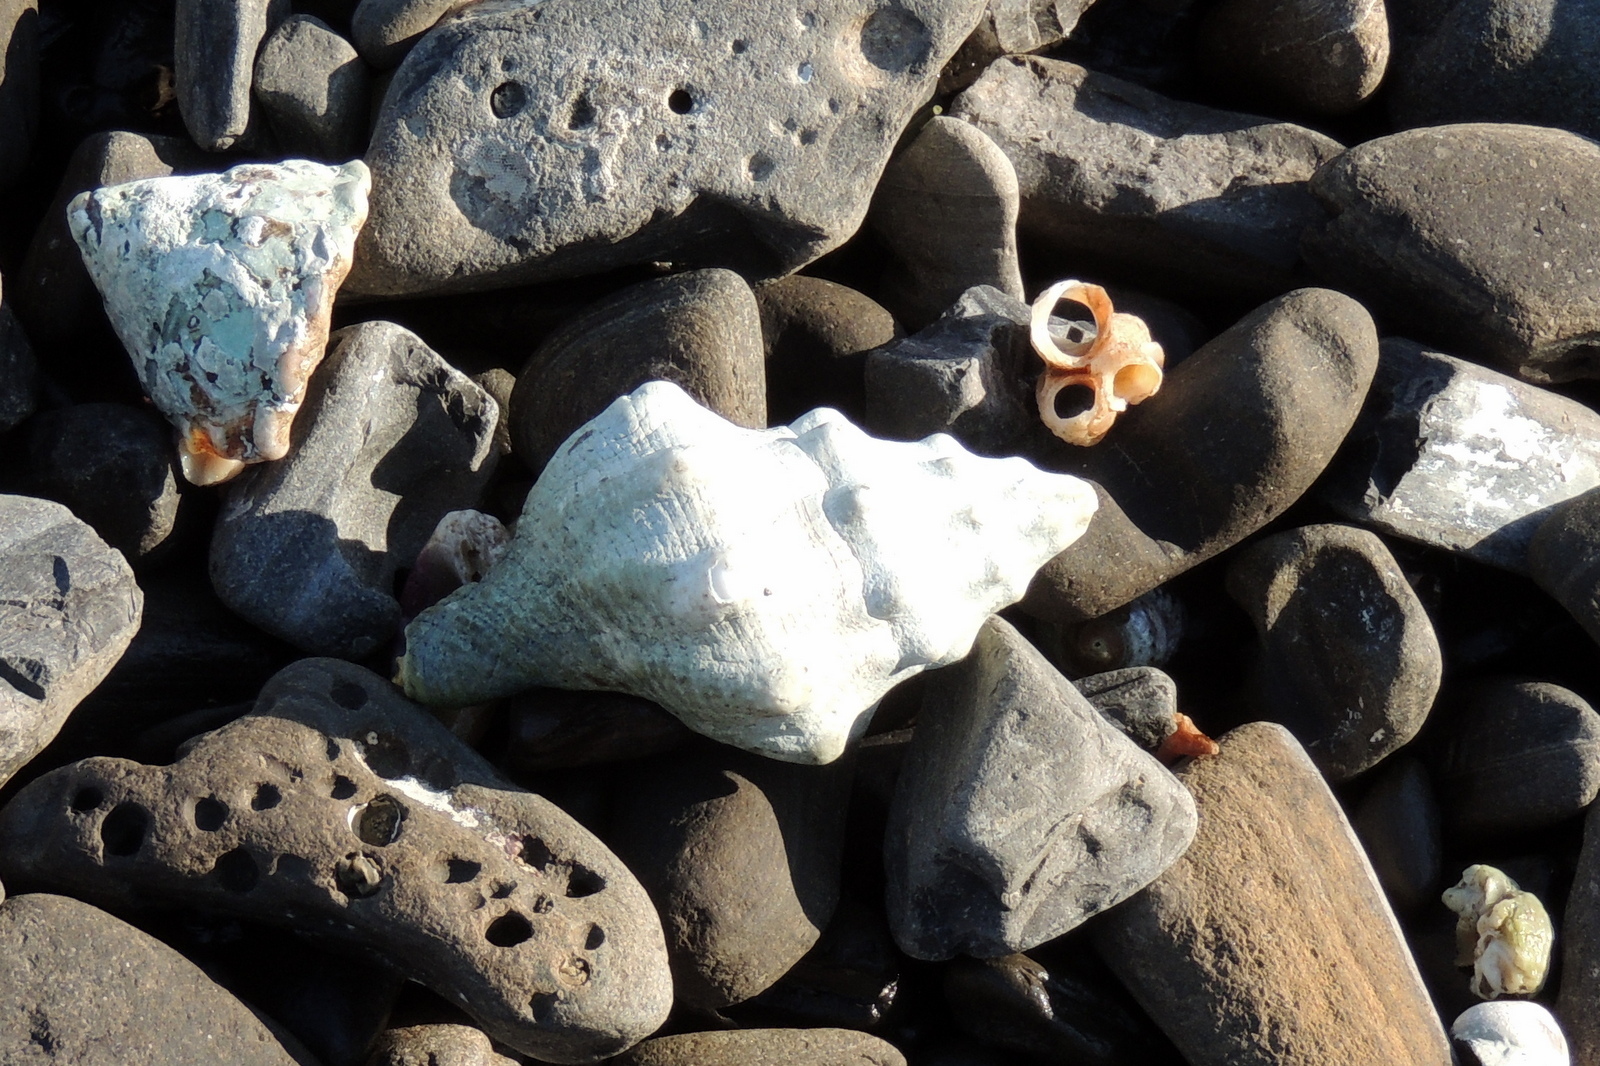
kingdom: Animalia
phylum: Mollusca
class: Gastropoda
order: Neogastropoda
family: Austrosiphonidae
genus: Kelletia
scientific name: Kelletia kelletii
